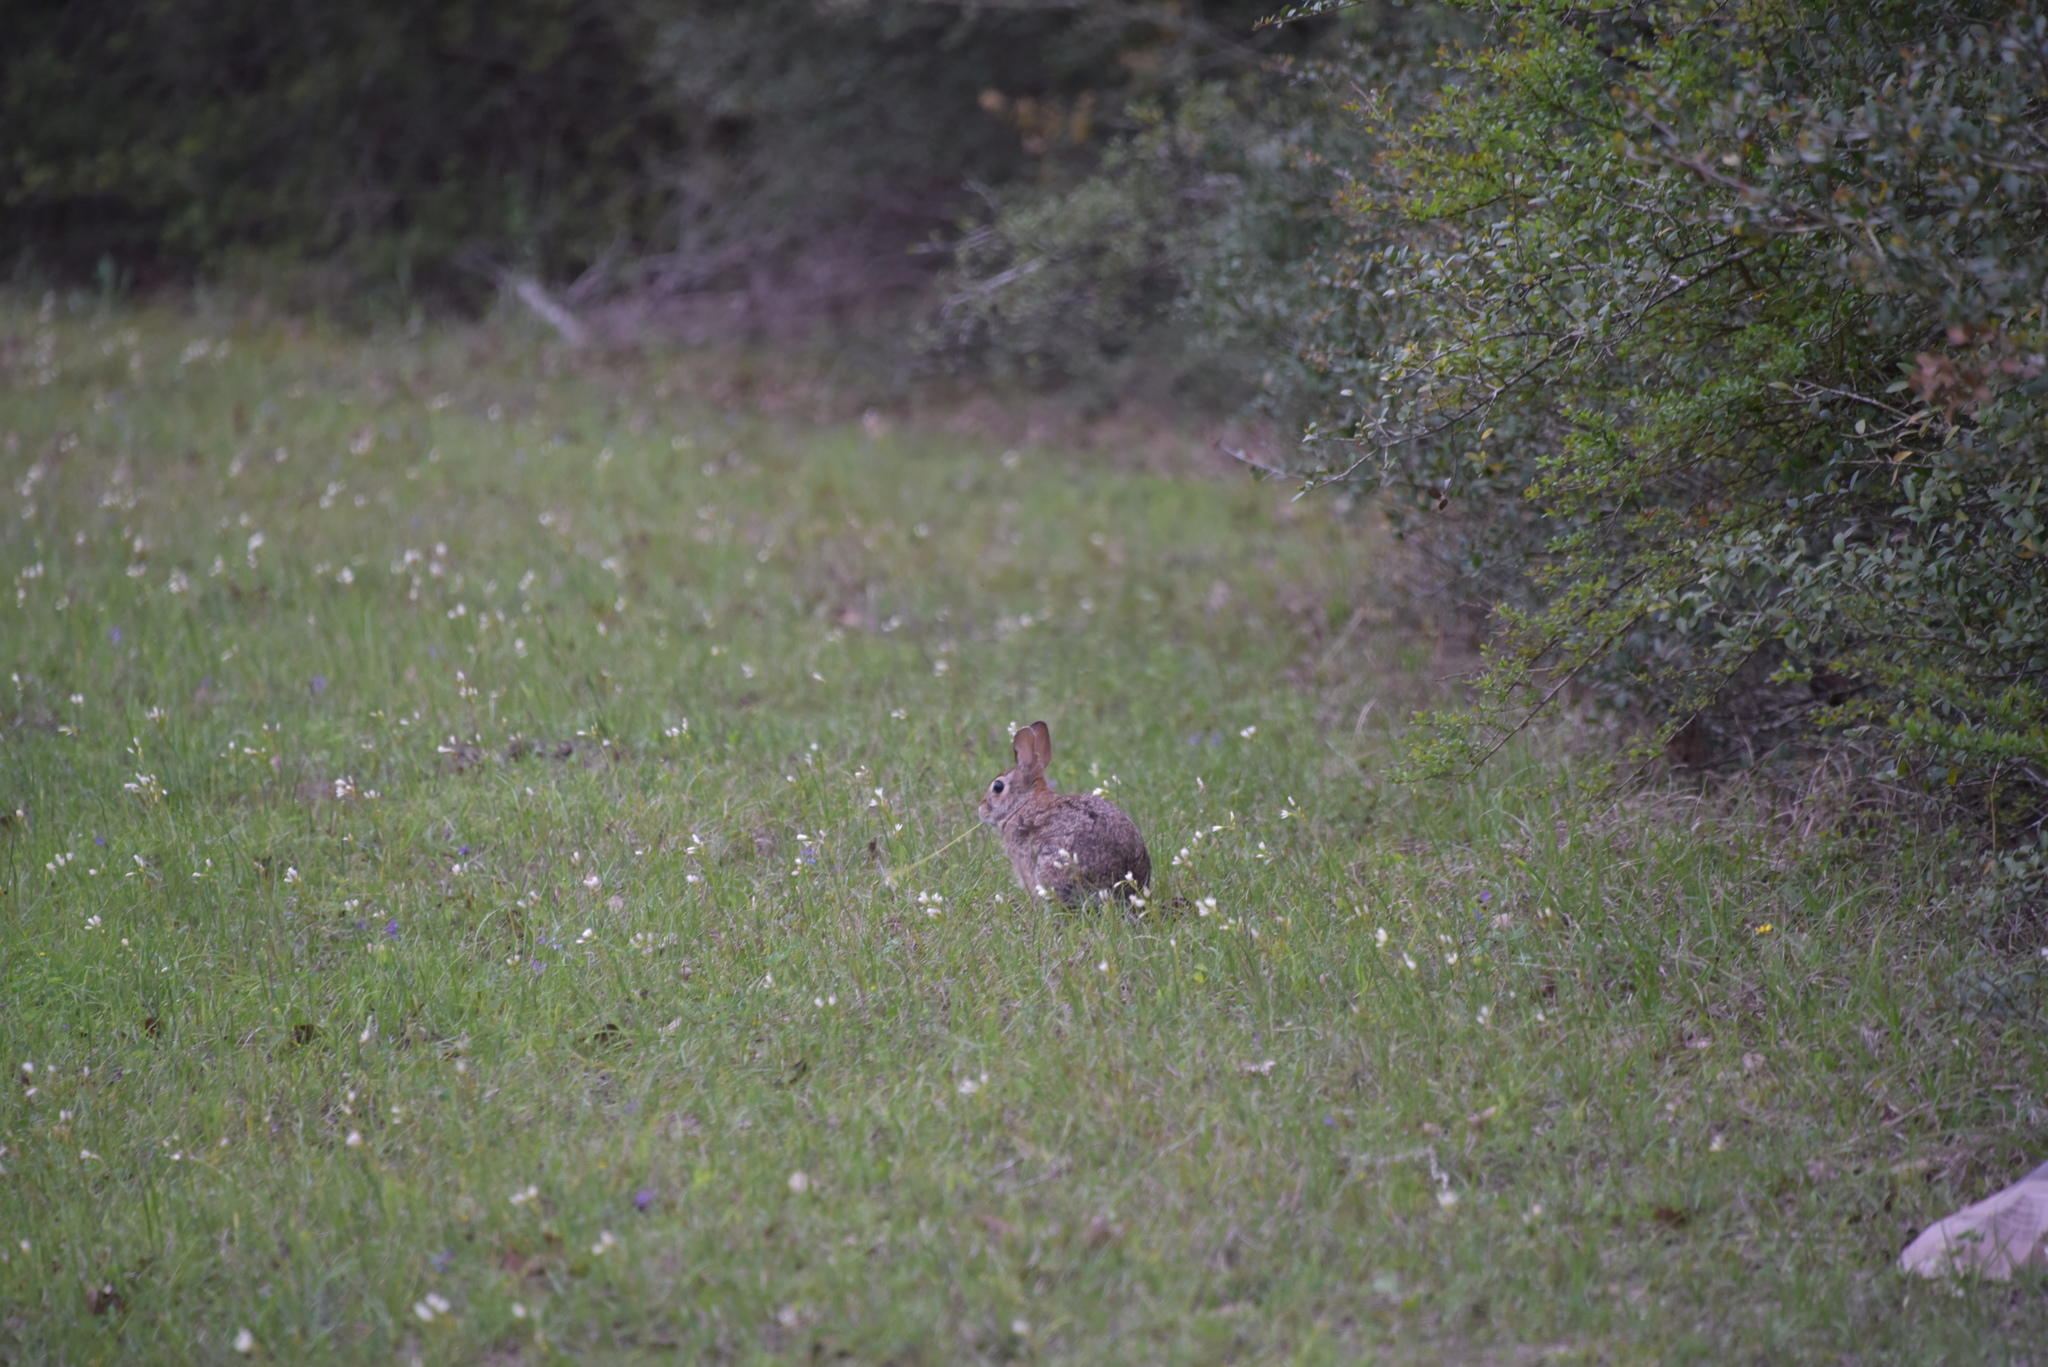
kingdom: Animalia
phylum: Chordata
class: Mammalia
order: Lagomorpha
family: Leporidae
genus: Sylvilagus
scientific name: Sylvilagus floridanus
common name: Eastern cottontail
